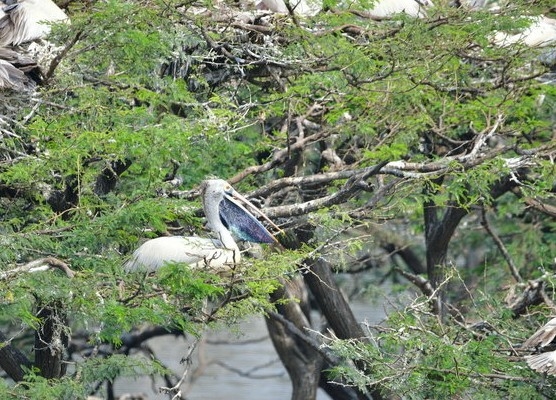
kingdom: Animalia
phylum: Chordata
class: Aves
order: Pelecaniformes
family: Pelecanidae
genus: Pelecanus
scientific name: Pelecanus philippensis
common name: Spot-billed pelican
